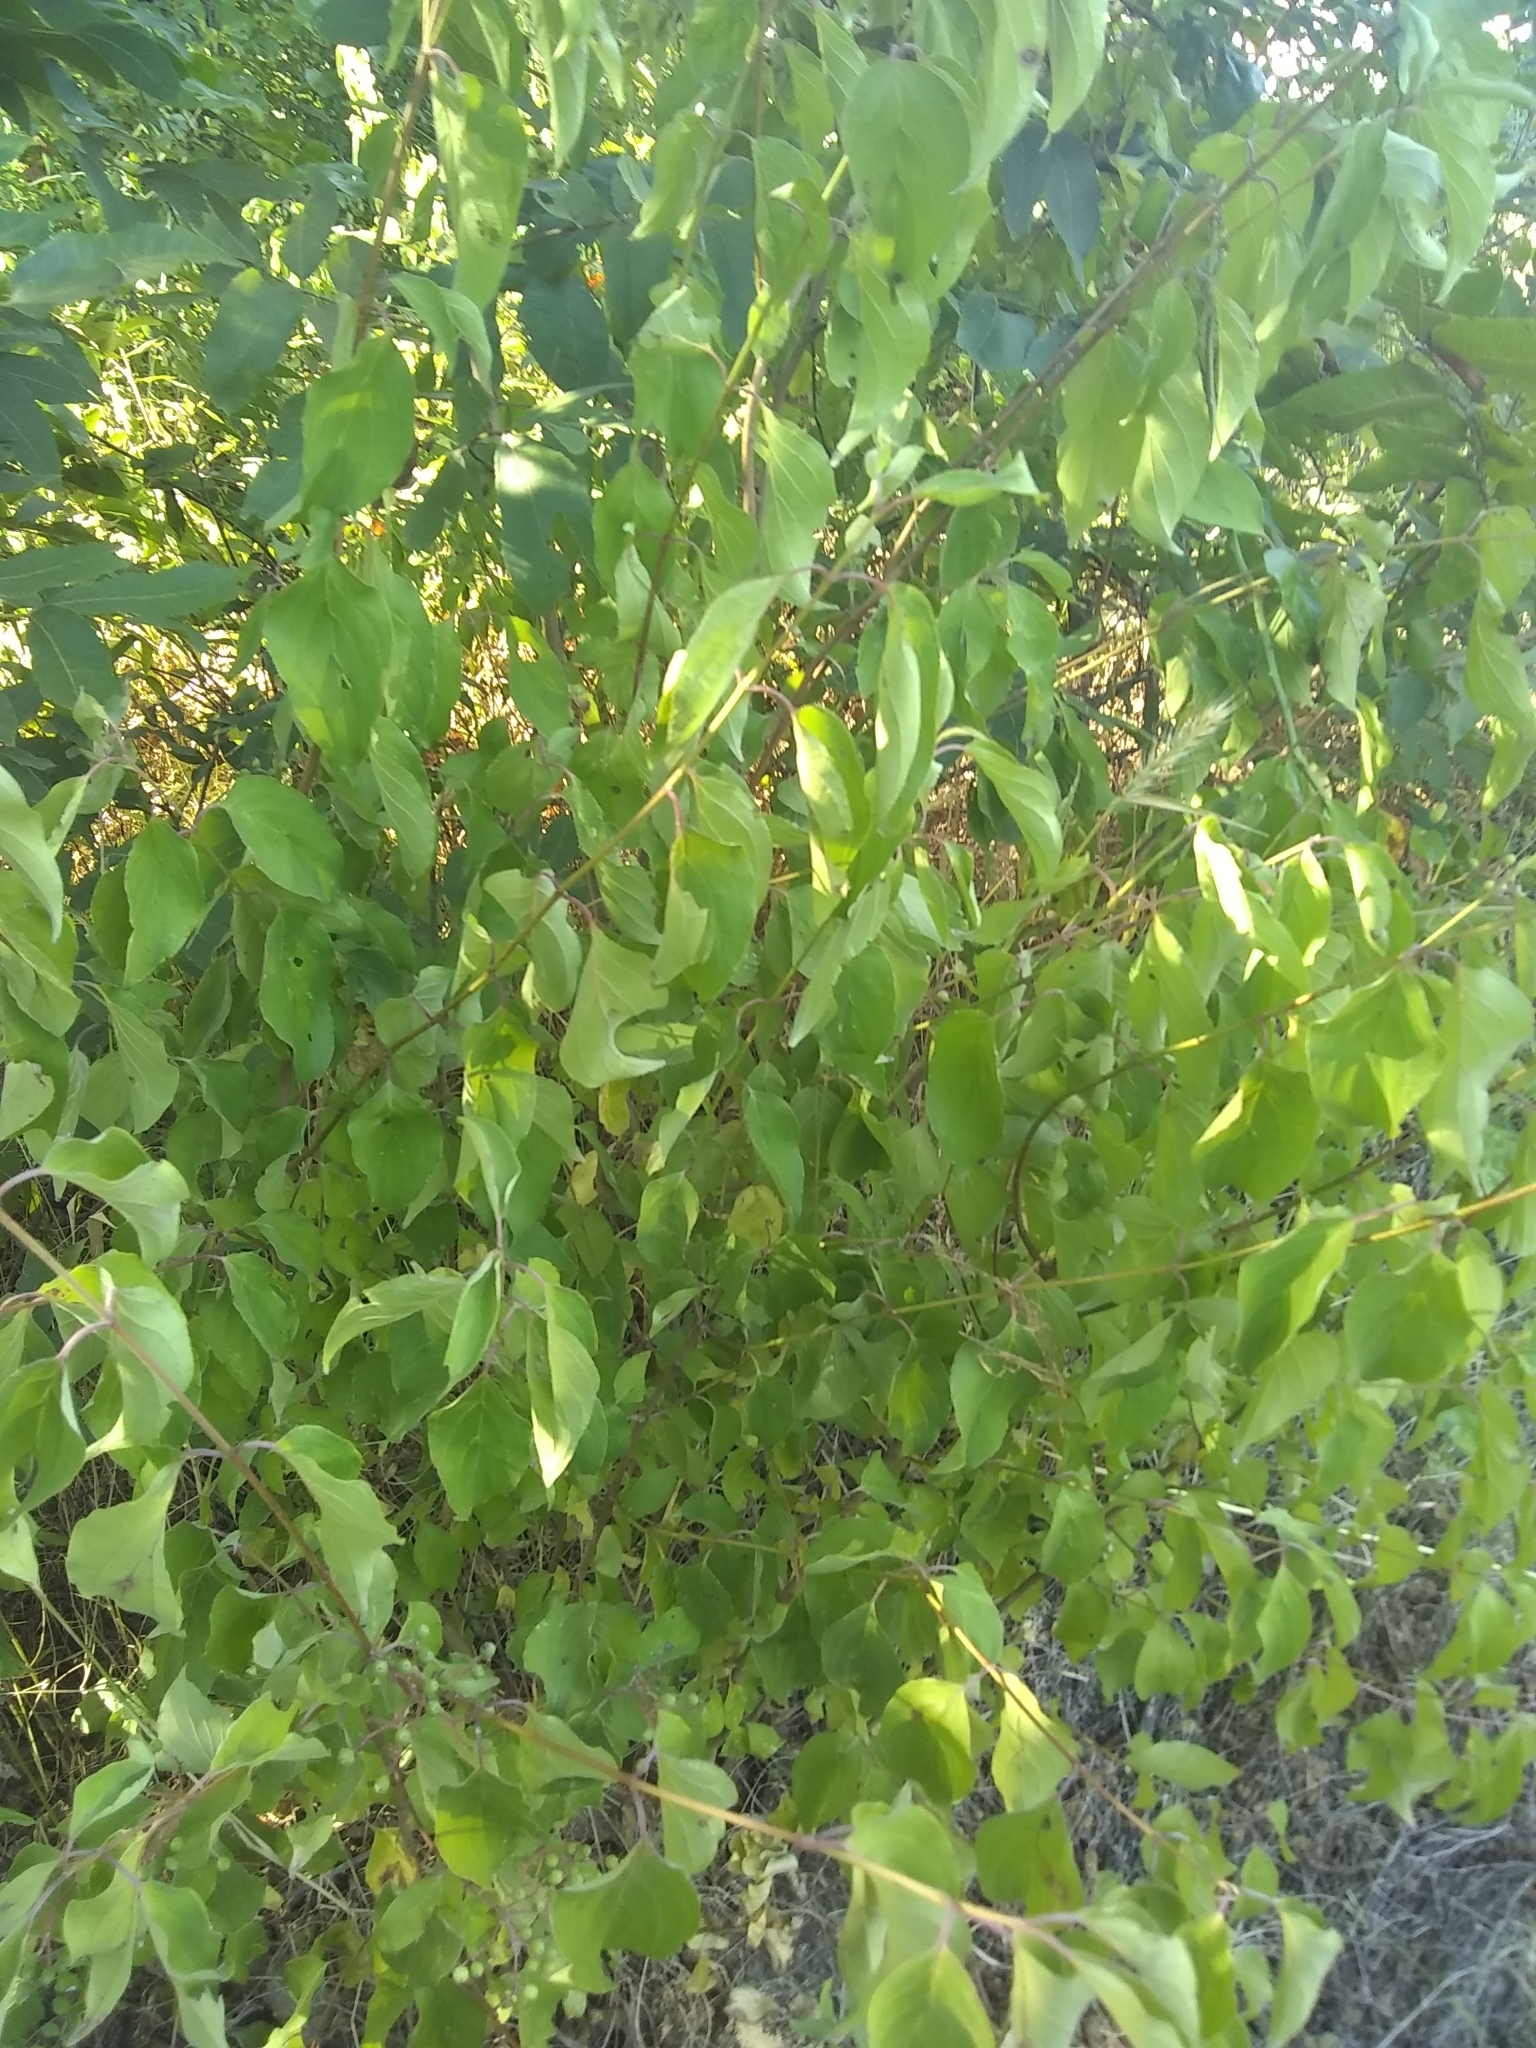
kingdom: Plantae
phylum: Tracheophyta
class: Magnoliopsida
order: Cornales
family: Cornaceae
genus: Cornus
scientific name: Cornus drummondii
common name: Rough-leaf dogwood
